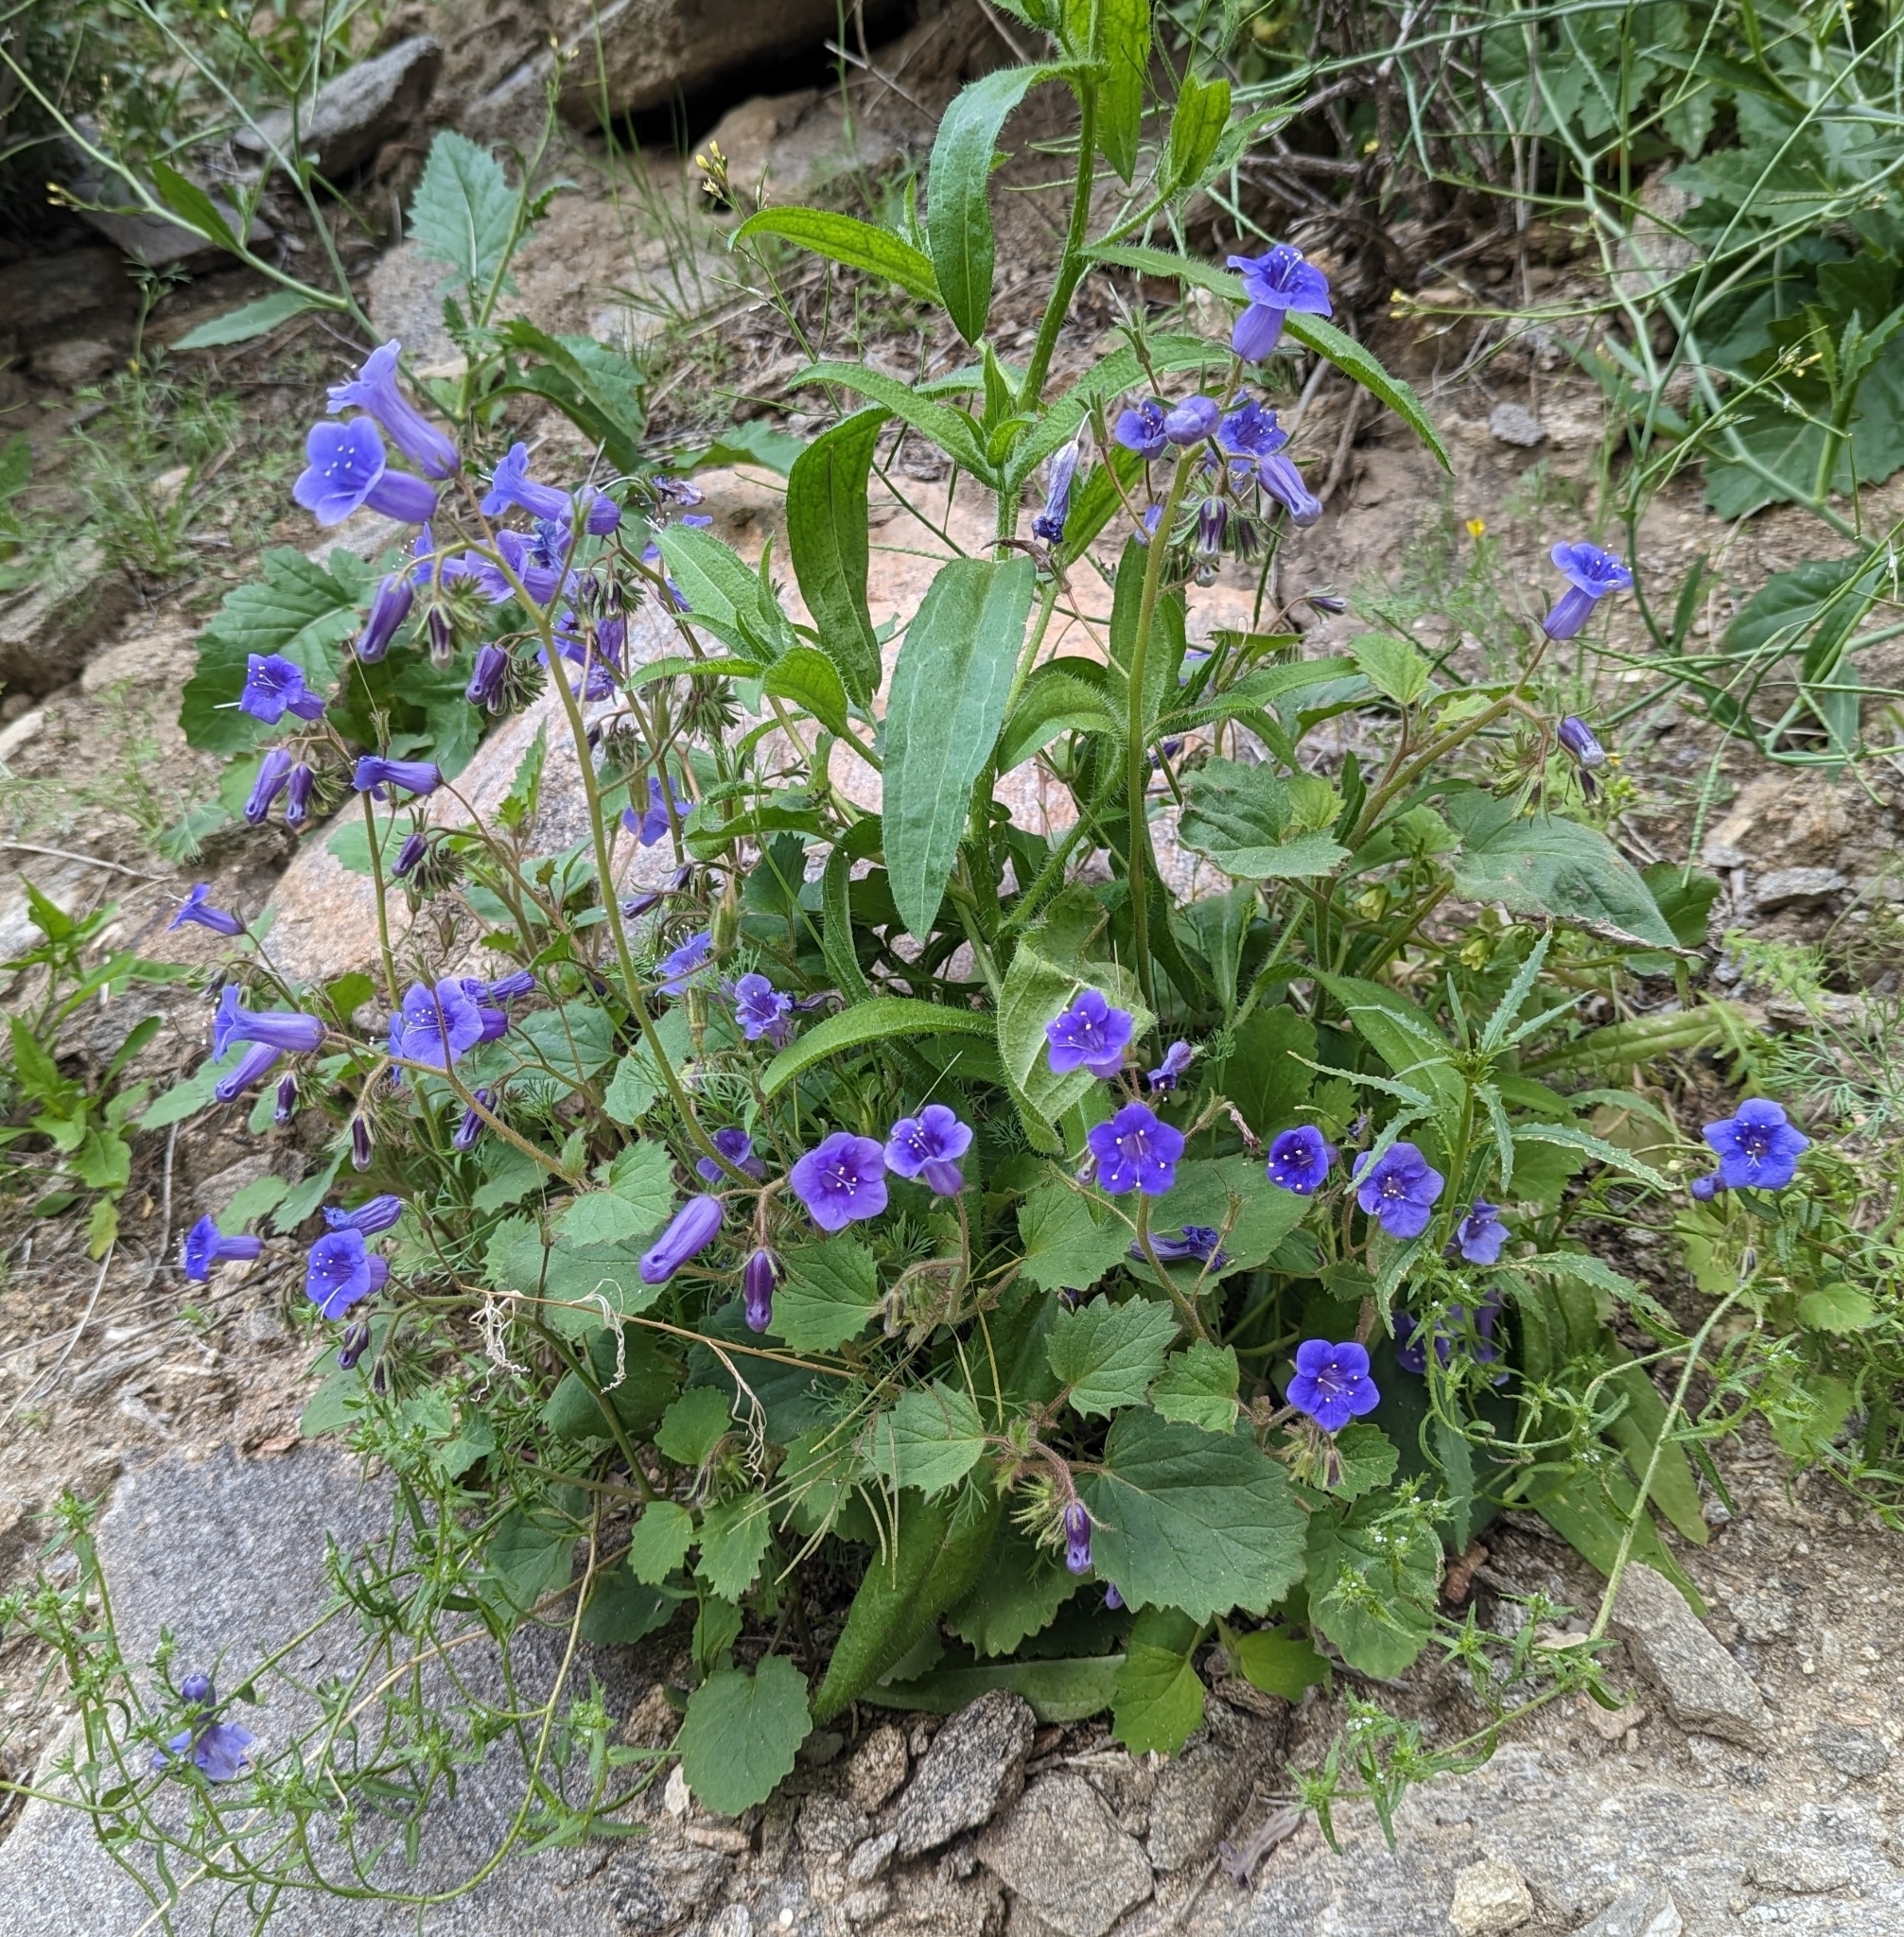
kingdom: Plantae
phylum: Tracheophyta
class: Magnoliopsida
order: Boraginales
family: Hydrophyllaceae
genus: Phacelia
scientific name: Phacelia minor
